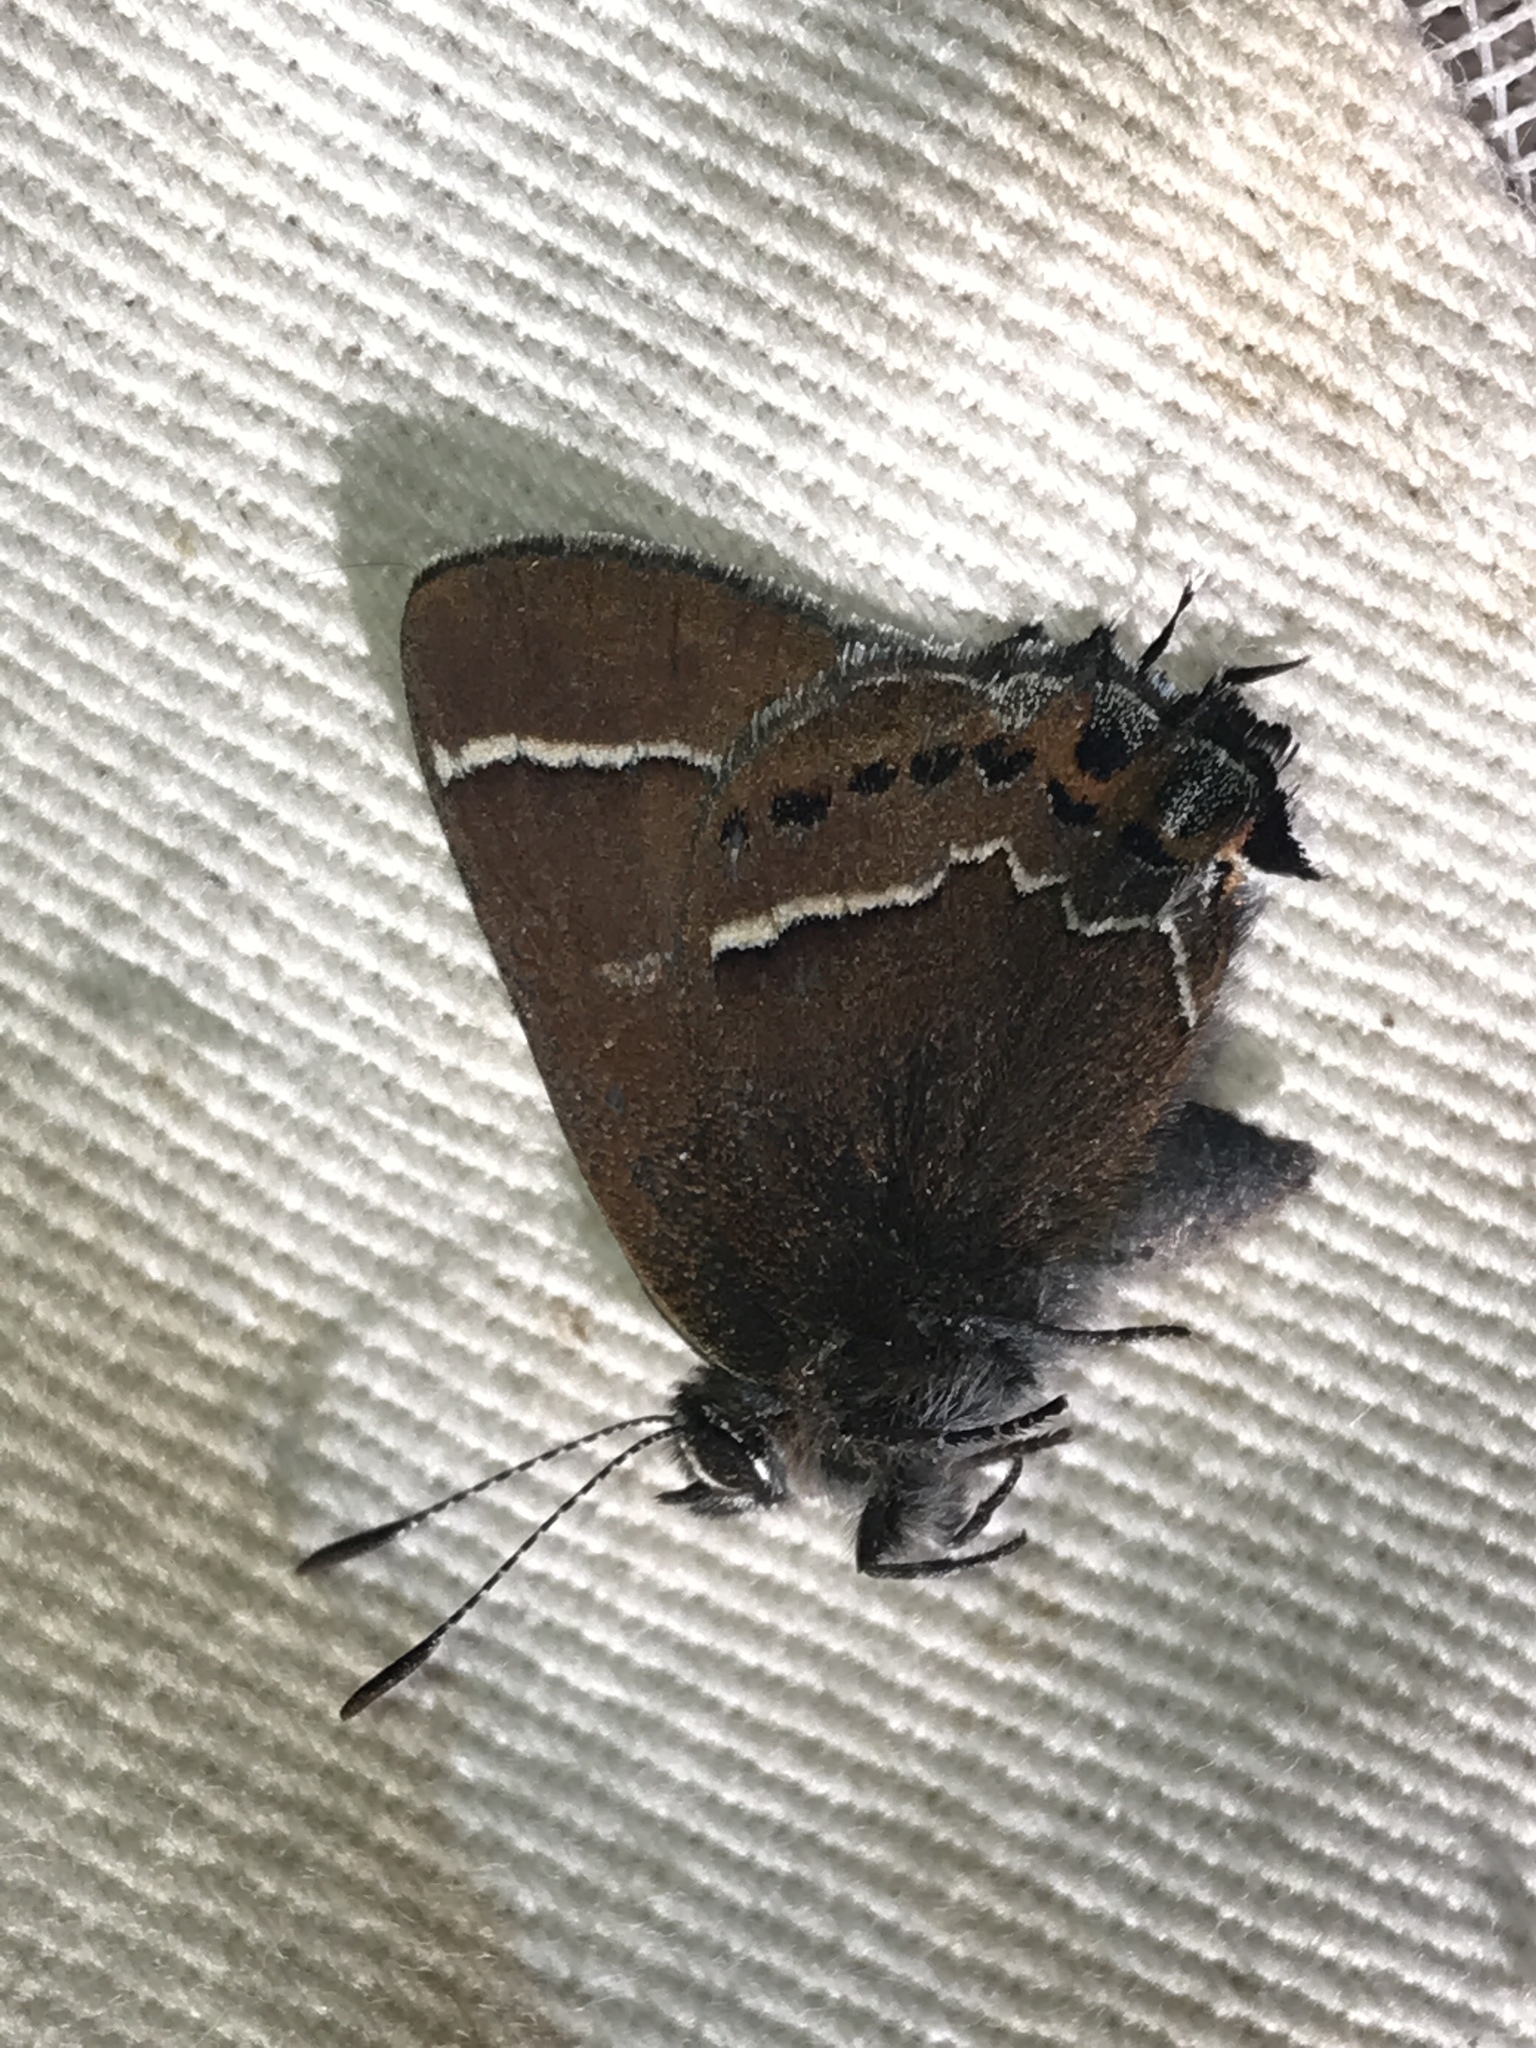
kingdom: Animalia
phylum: Arthropoda
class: Insecta
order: Lepidoptera
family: Lycaenidae
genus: Mitoura
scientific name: Mitoura spinetorum
